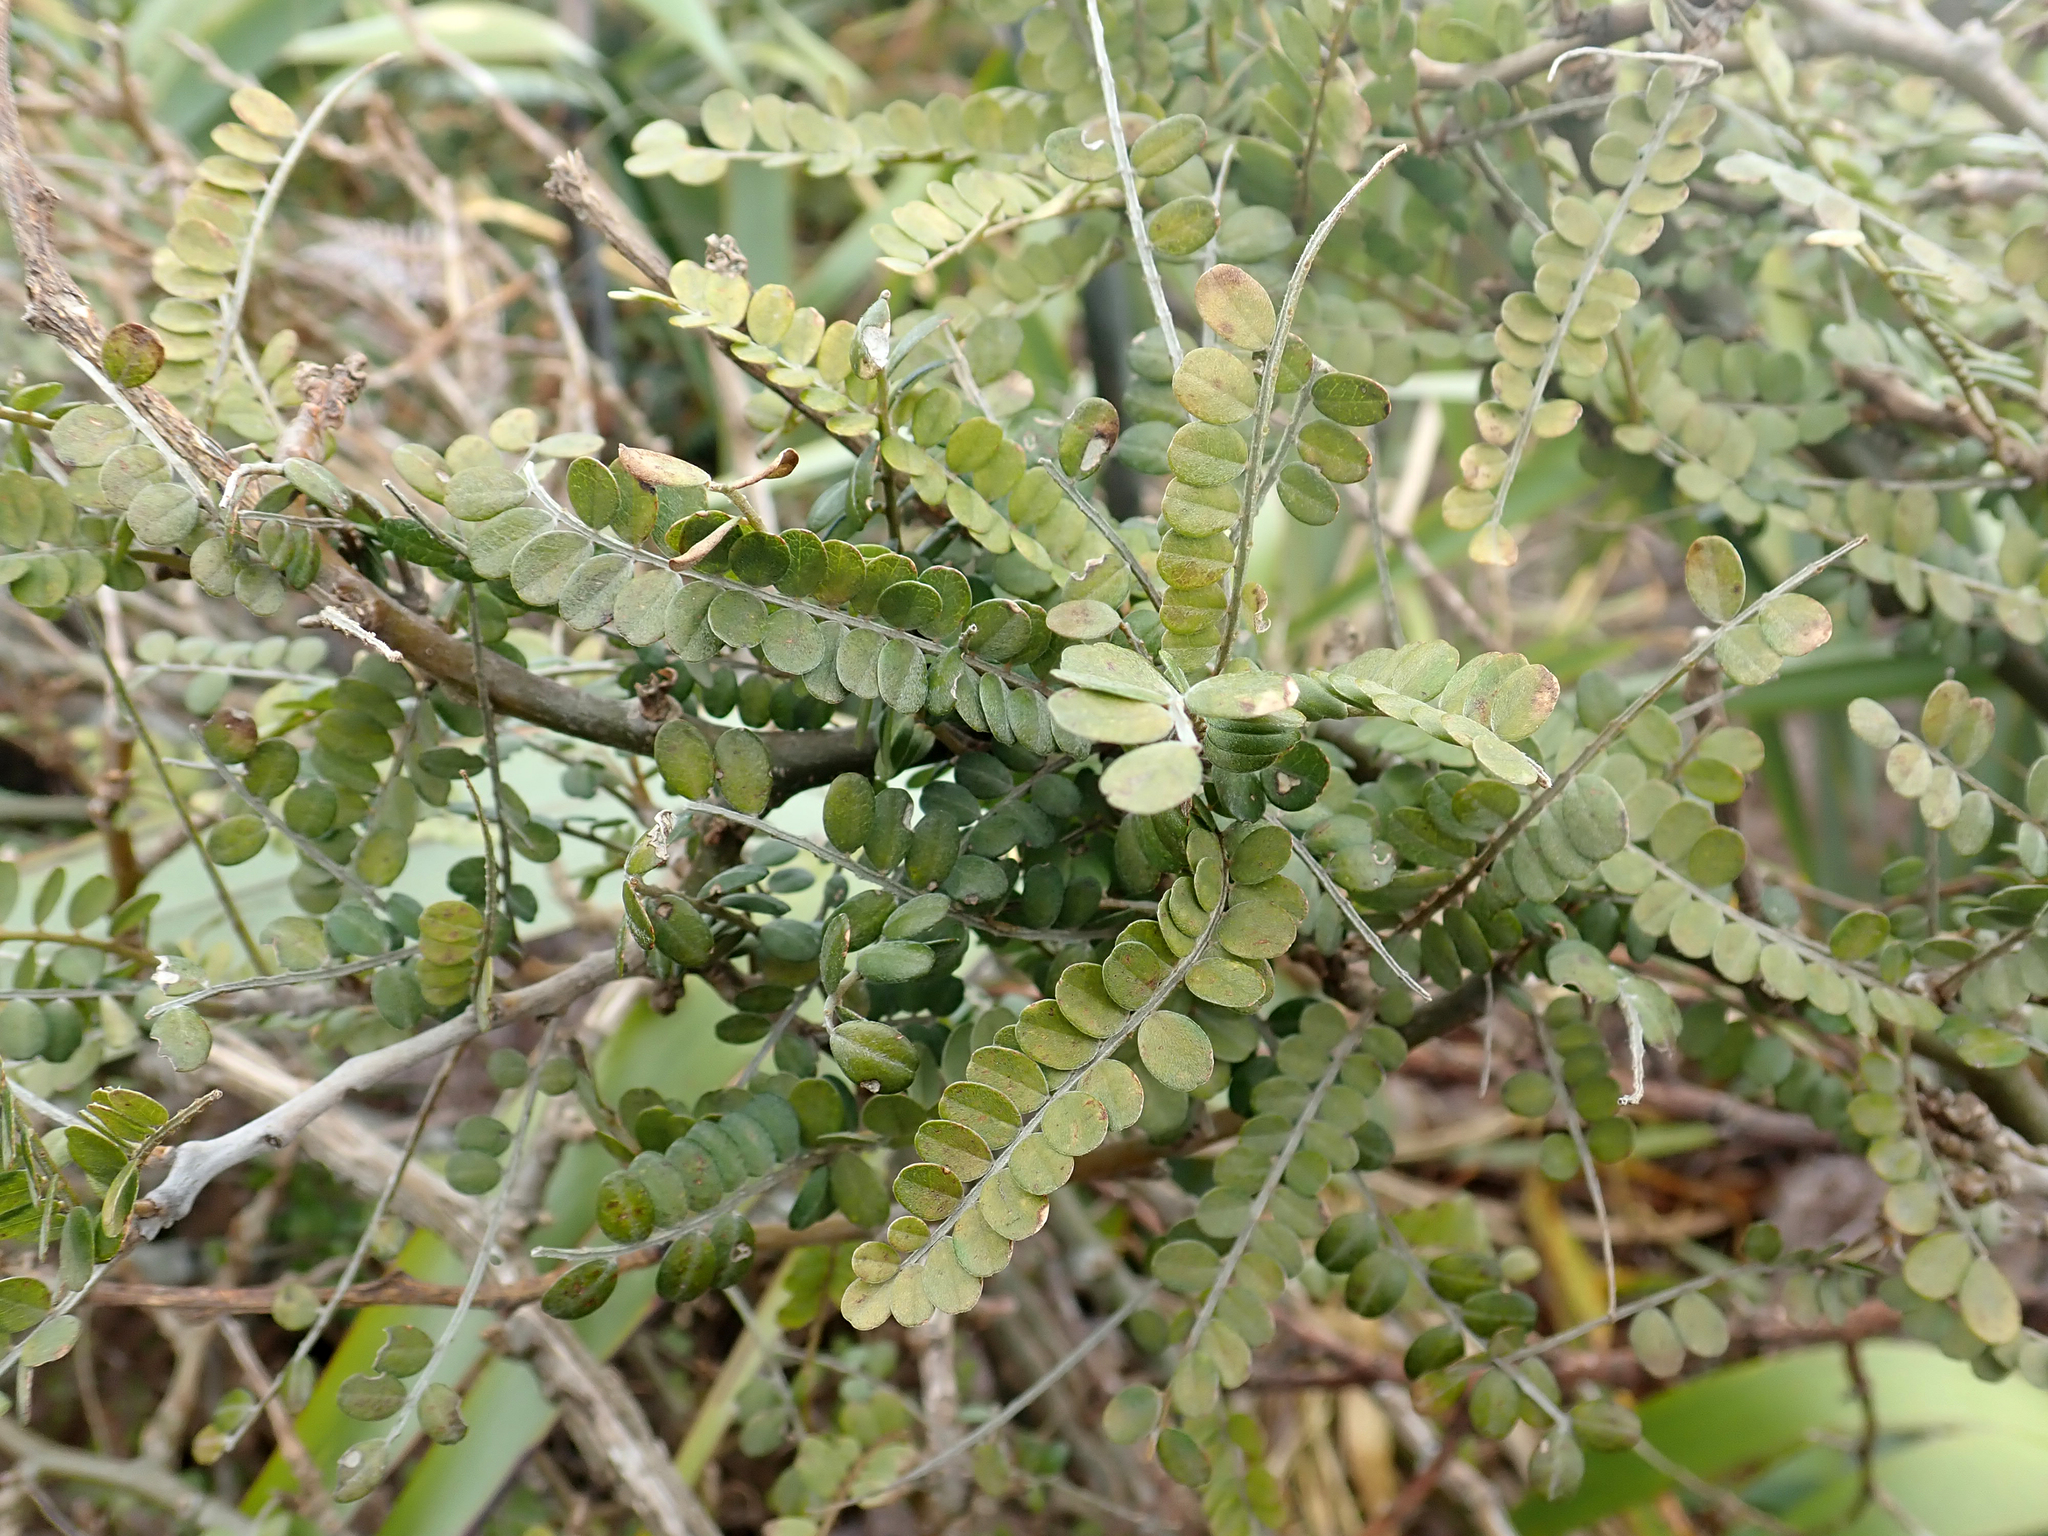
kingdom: Plantae
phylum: Tracheophyta
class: Magnoliopsida
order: Fabales
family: Fabaceae
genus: Sophora
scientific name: Sophora chathamica
